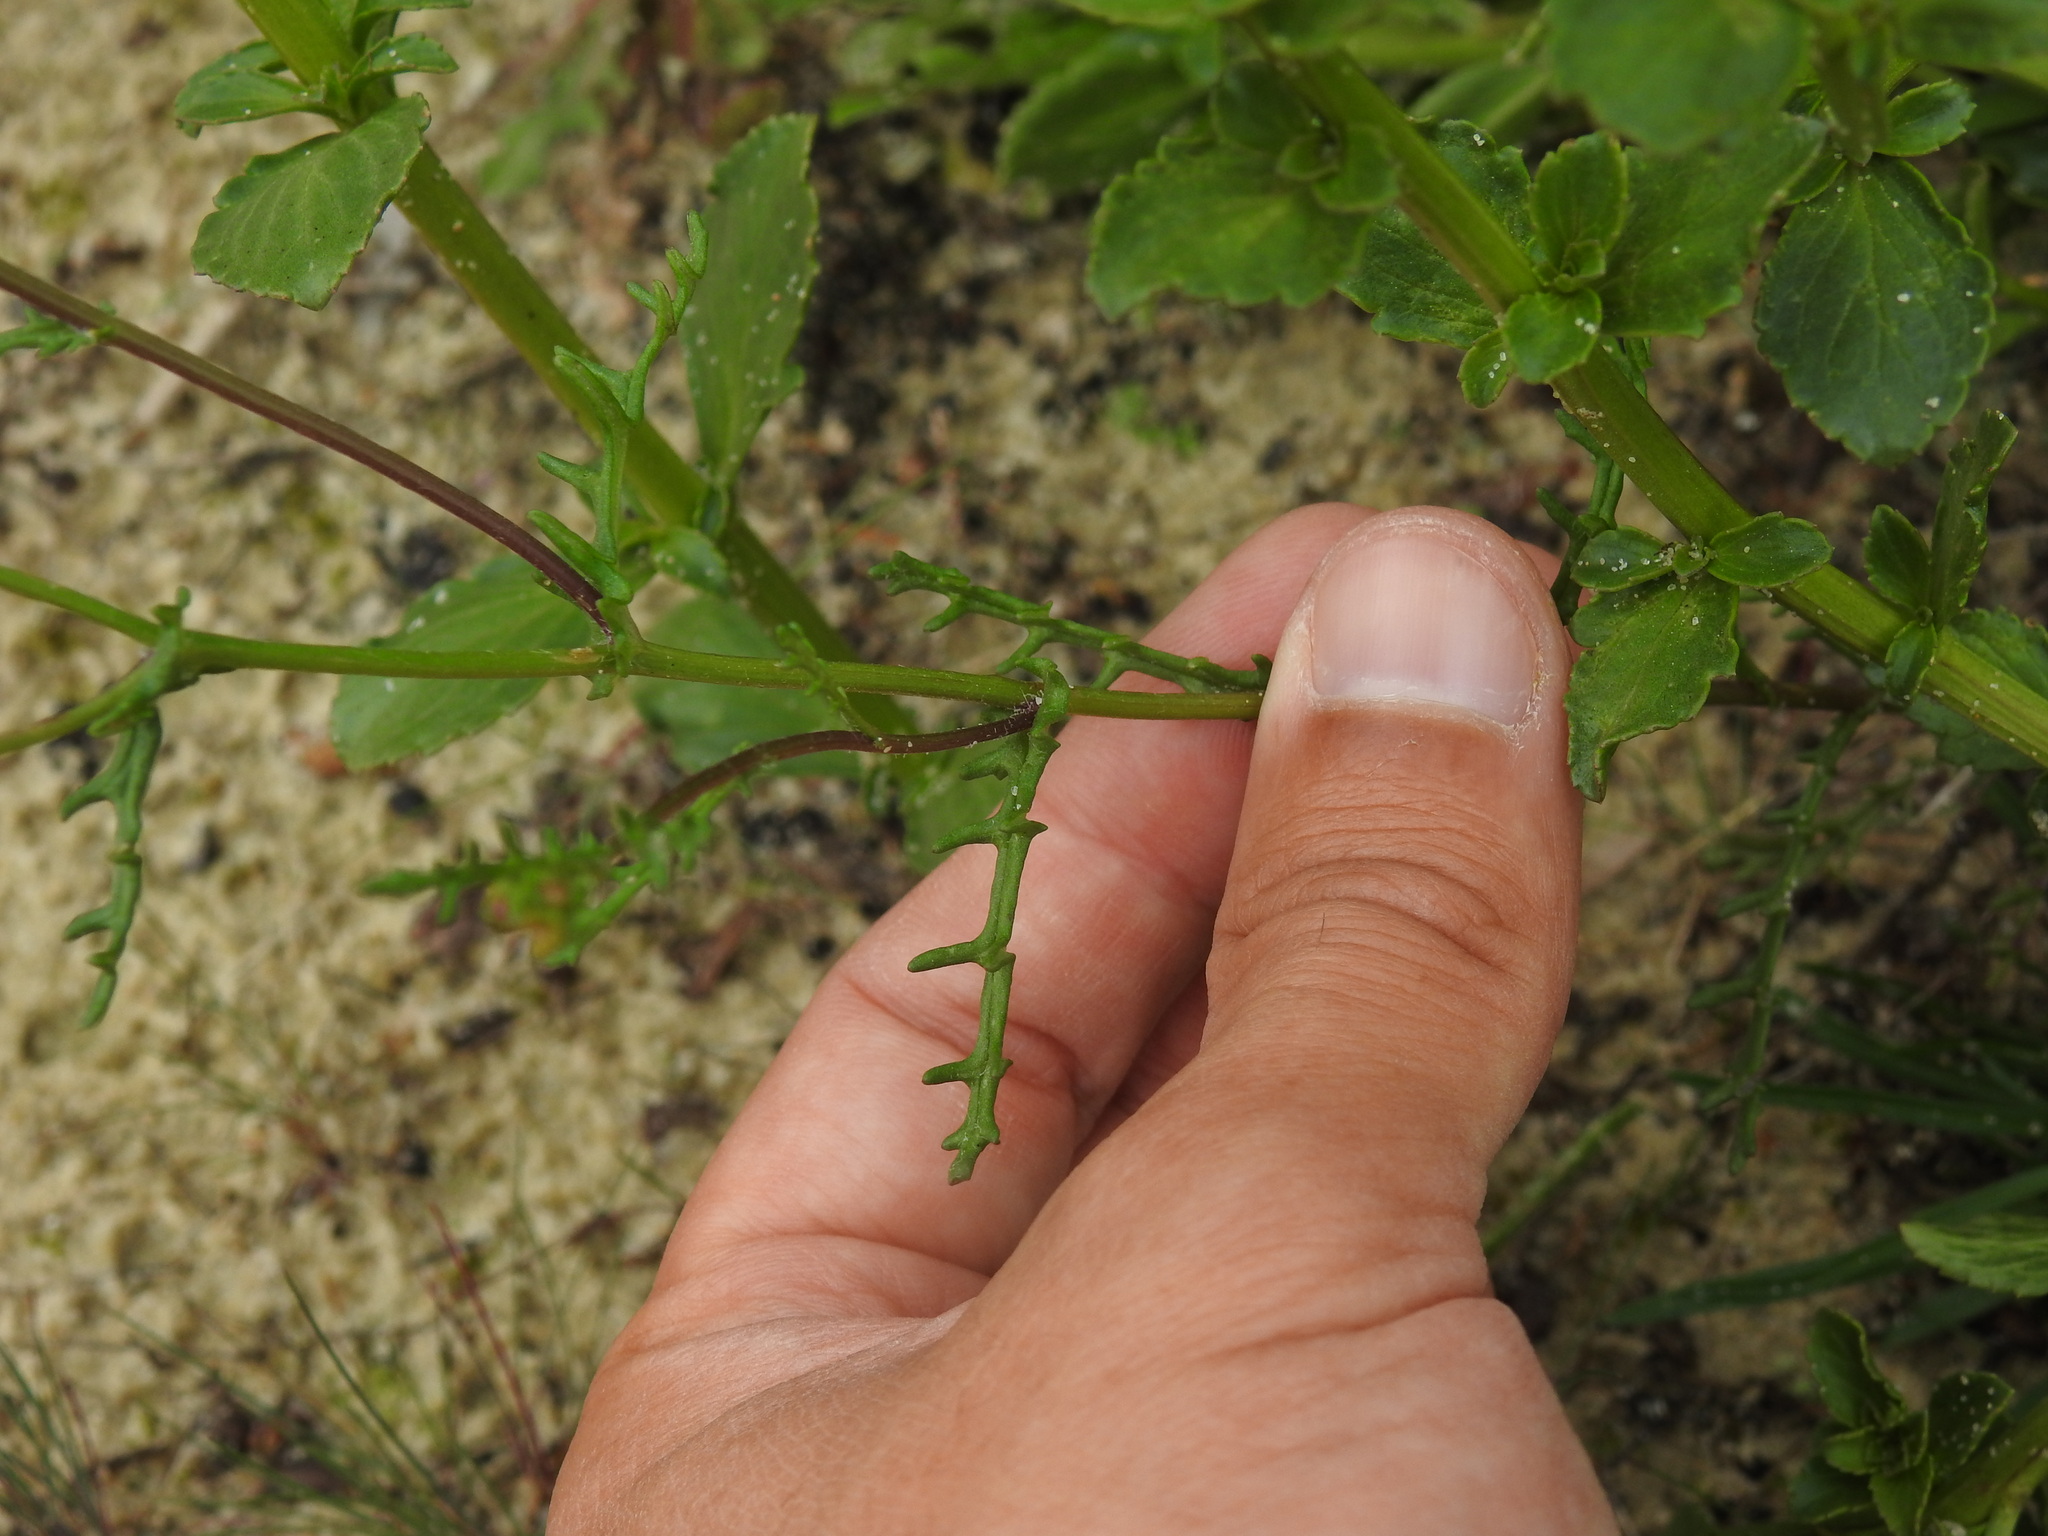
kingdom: Plantae
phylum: Tracheophyta
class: Magnoliopsida
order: Asterales
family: Asteraceae
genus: Senecio
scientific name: Senecio gallicus
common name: French groundsel
